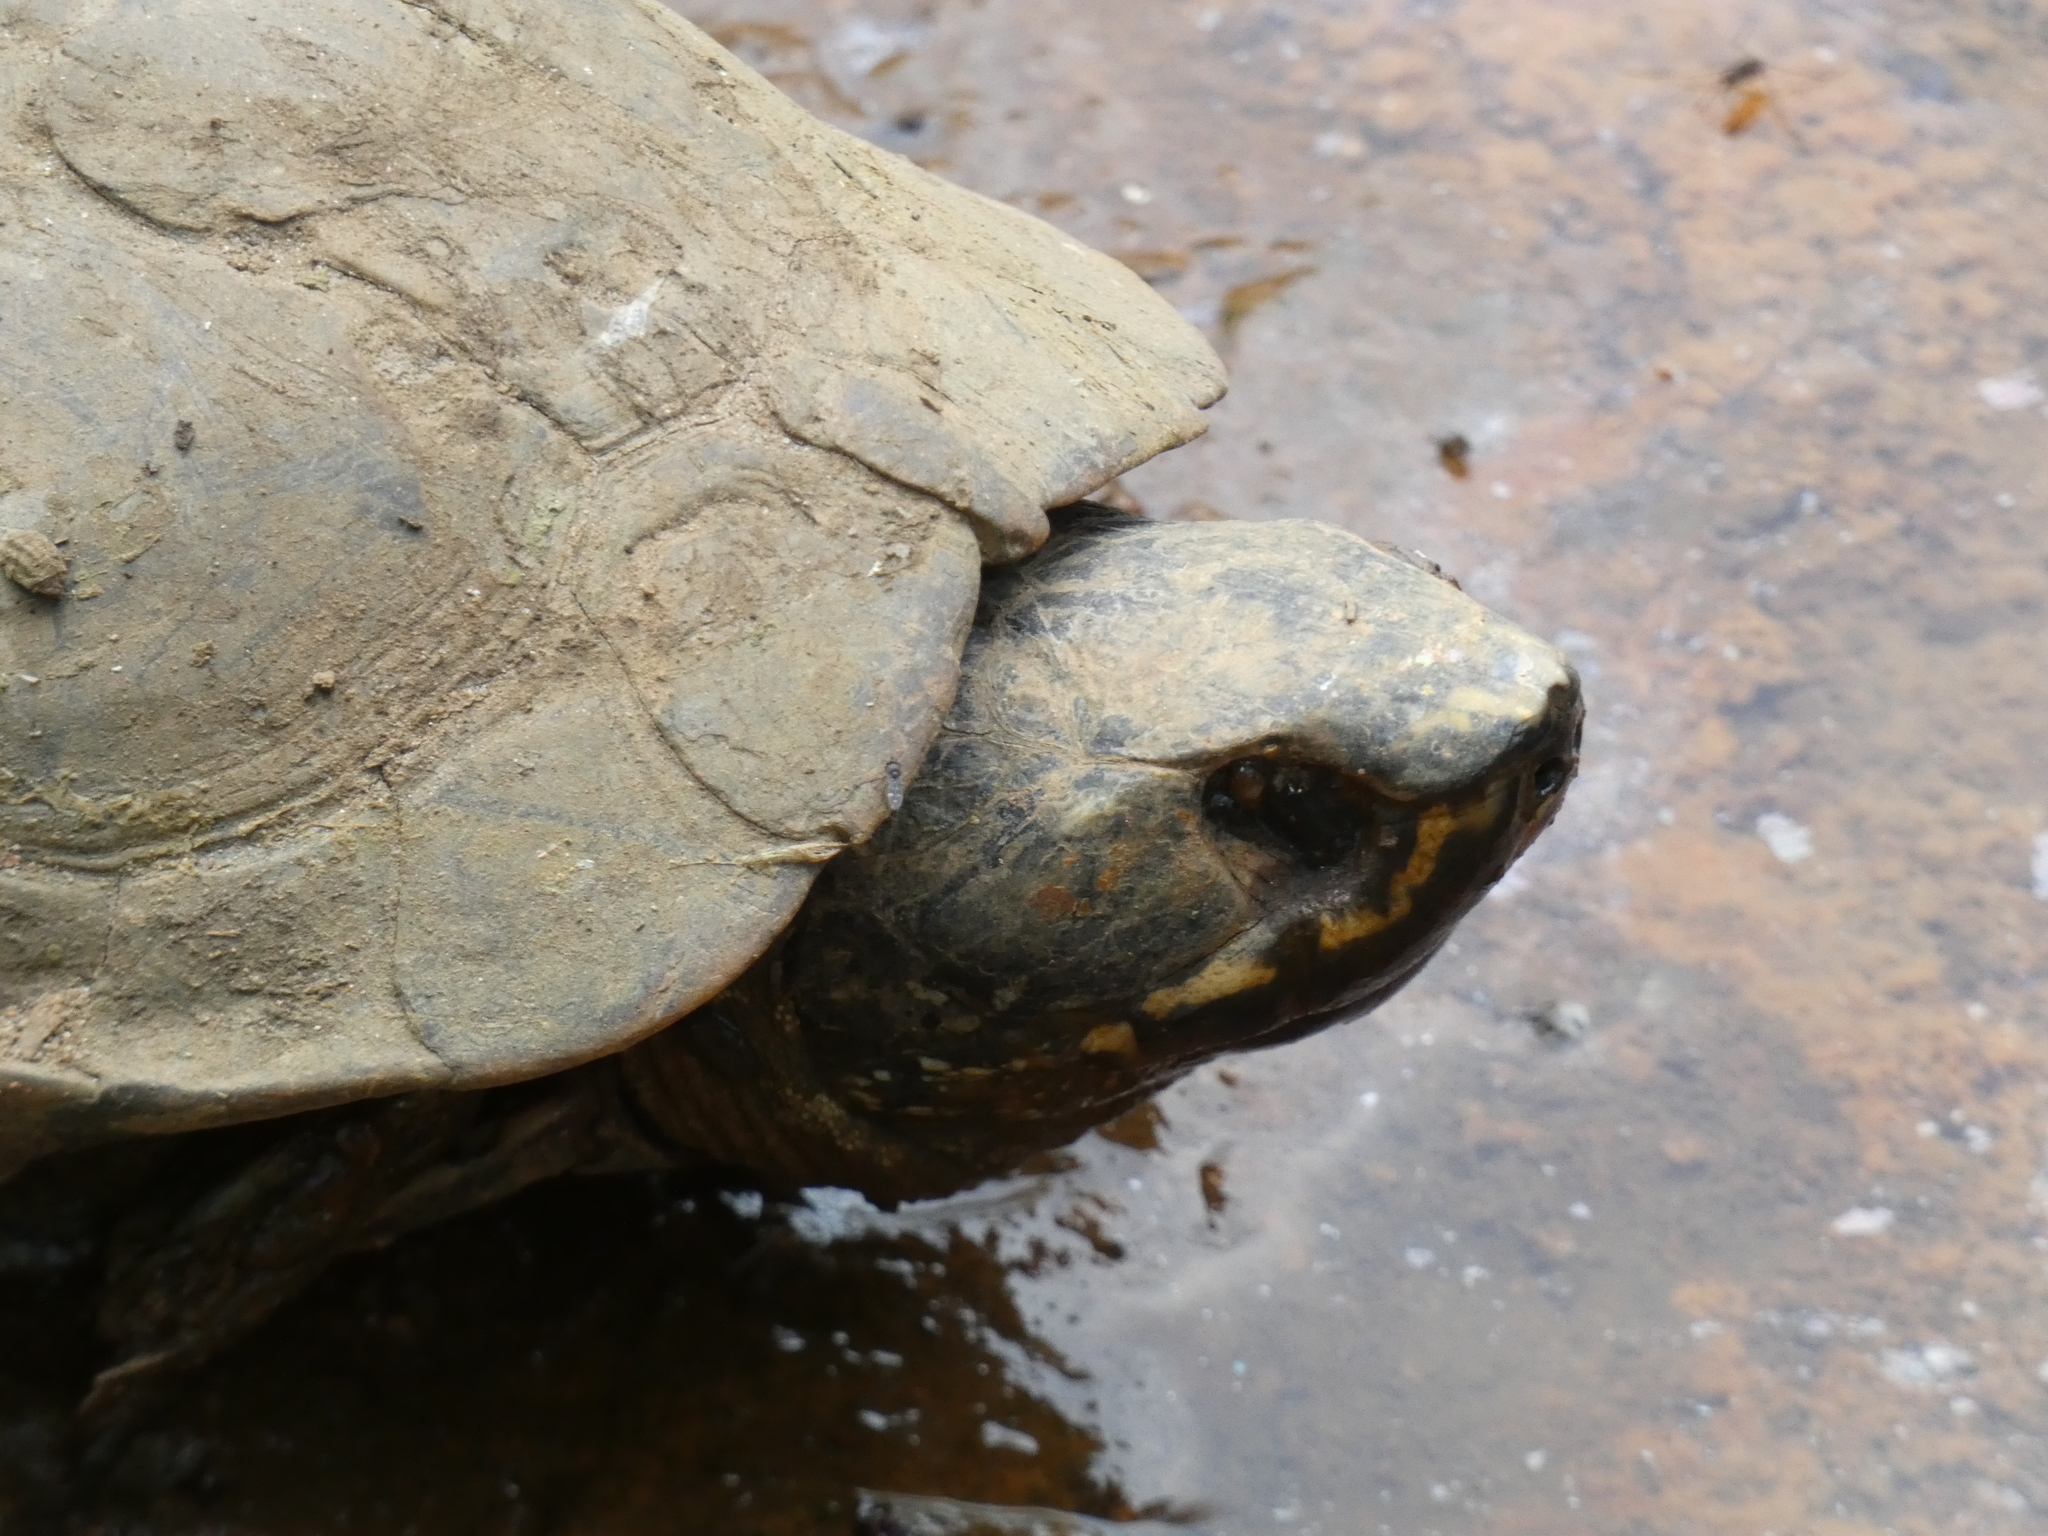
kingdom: Animalia
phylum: Chordata
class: Testudines
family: Geoemydidae
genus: Malayemys
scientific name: Malayemys macrocephala
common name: Malayan snail-eating turtle
